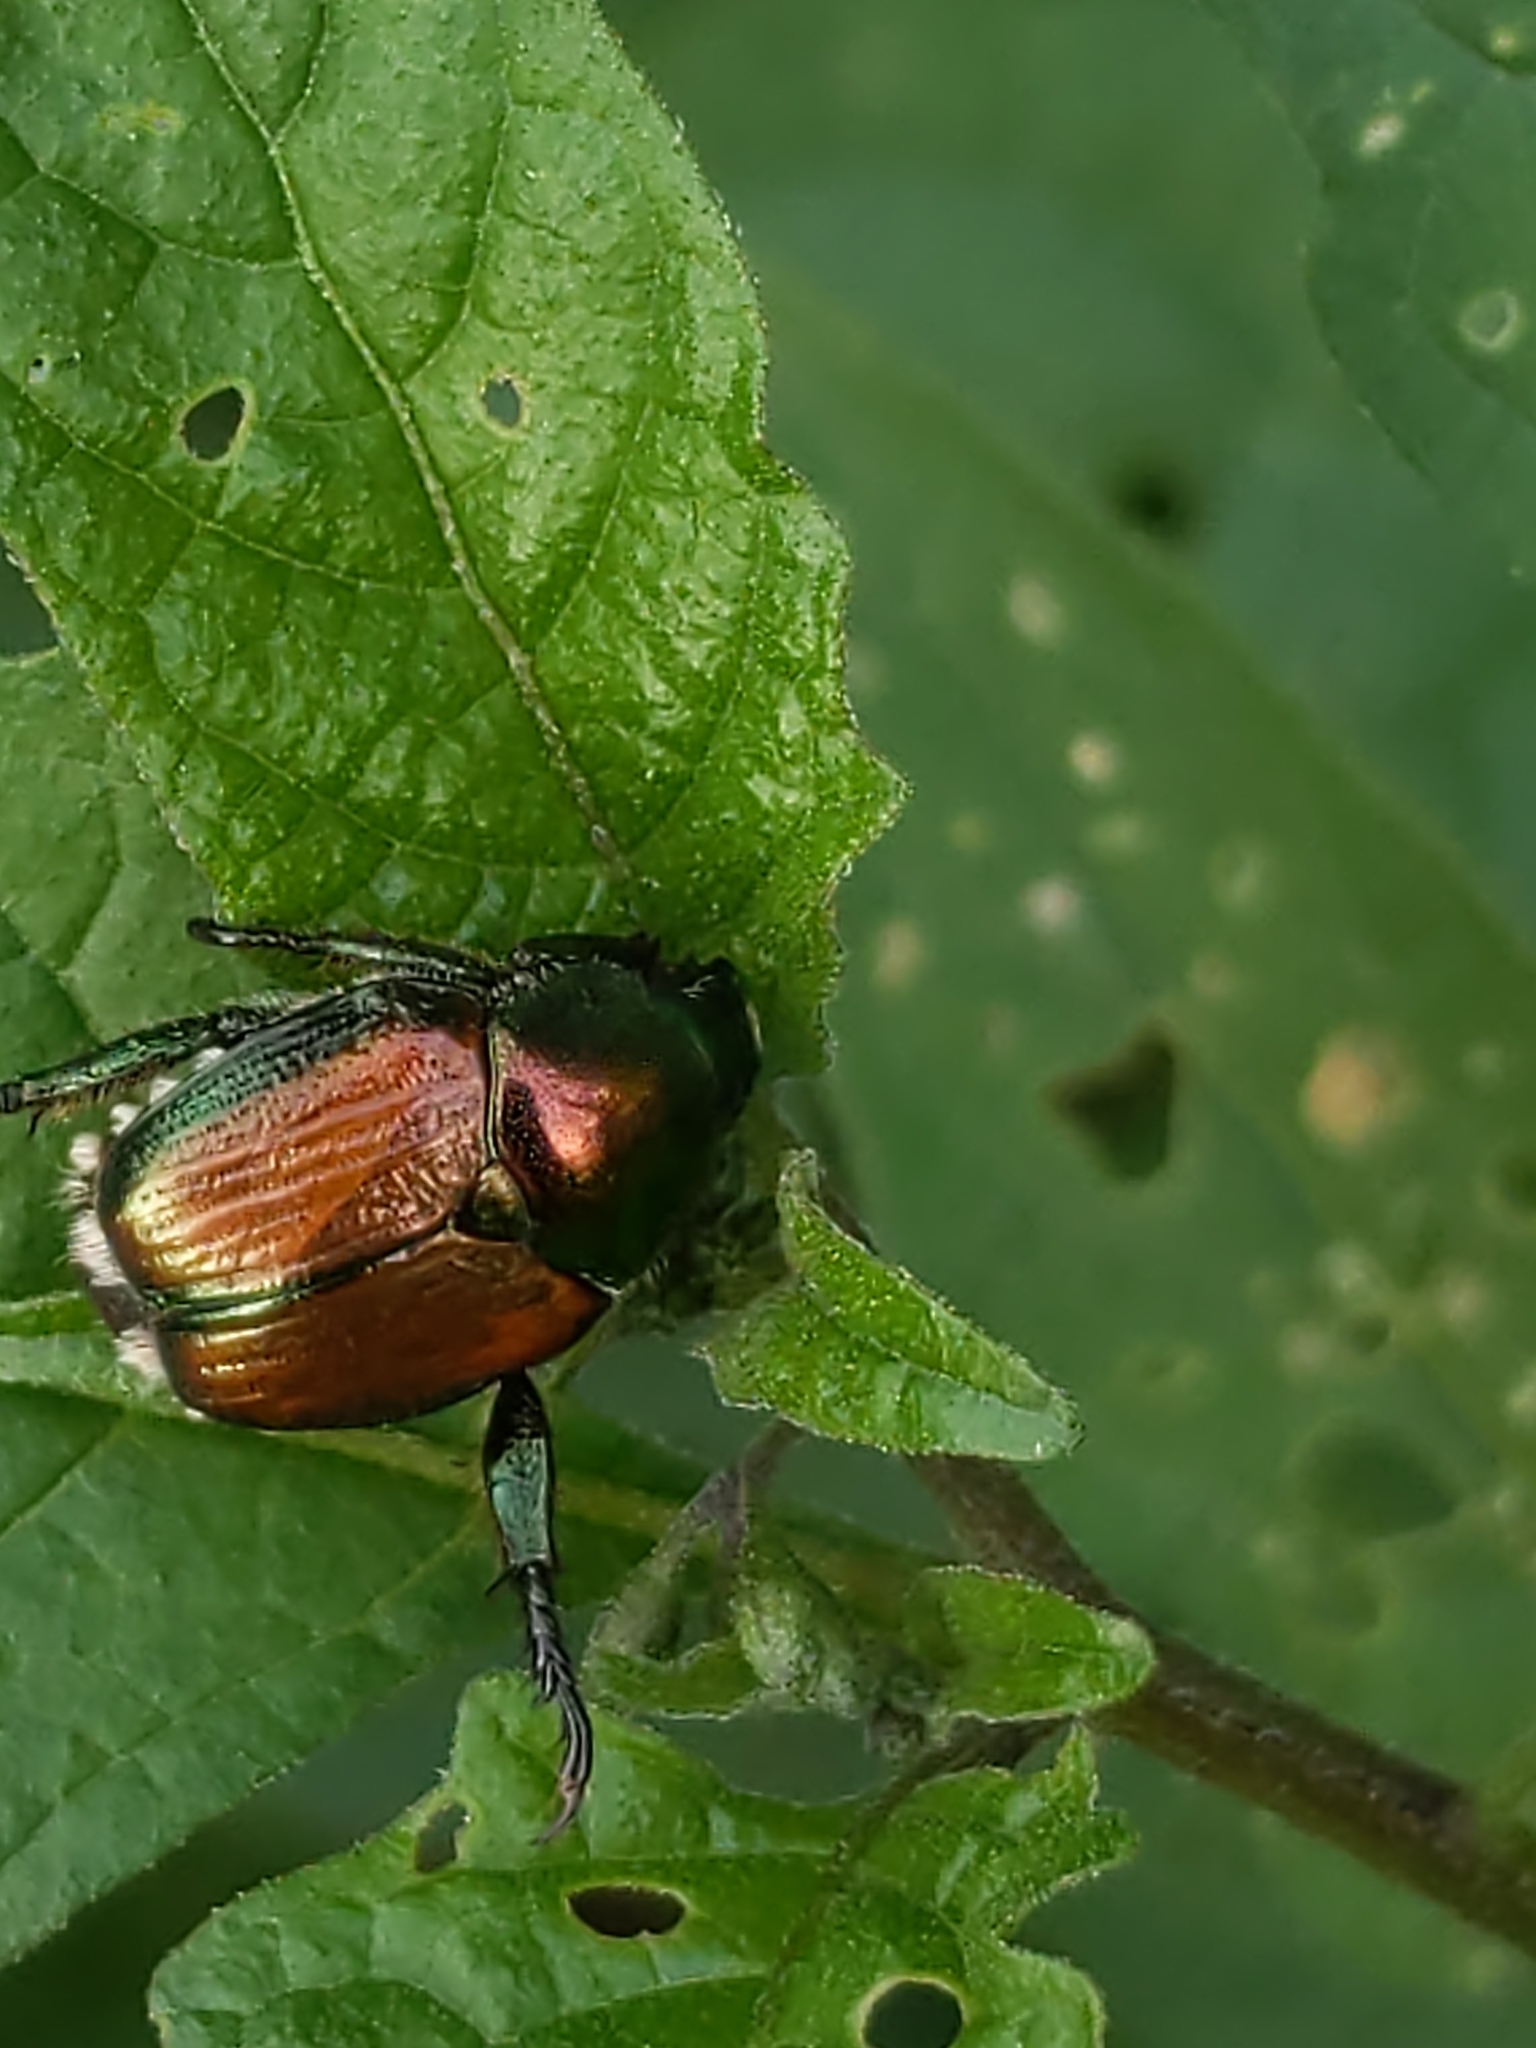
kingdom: Animalia
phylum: Arthropoda
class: Insecta
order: Coleoptera
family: Scarabaeidae
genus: Popillia
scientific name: Popillia japonica
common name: Japanese beetle
